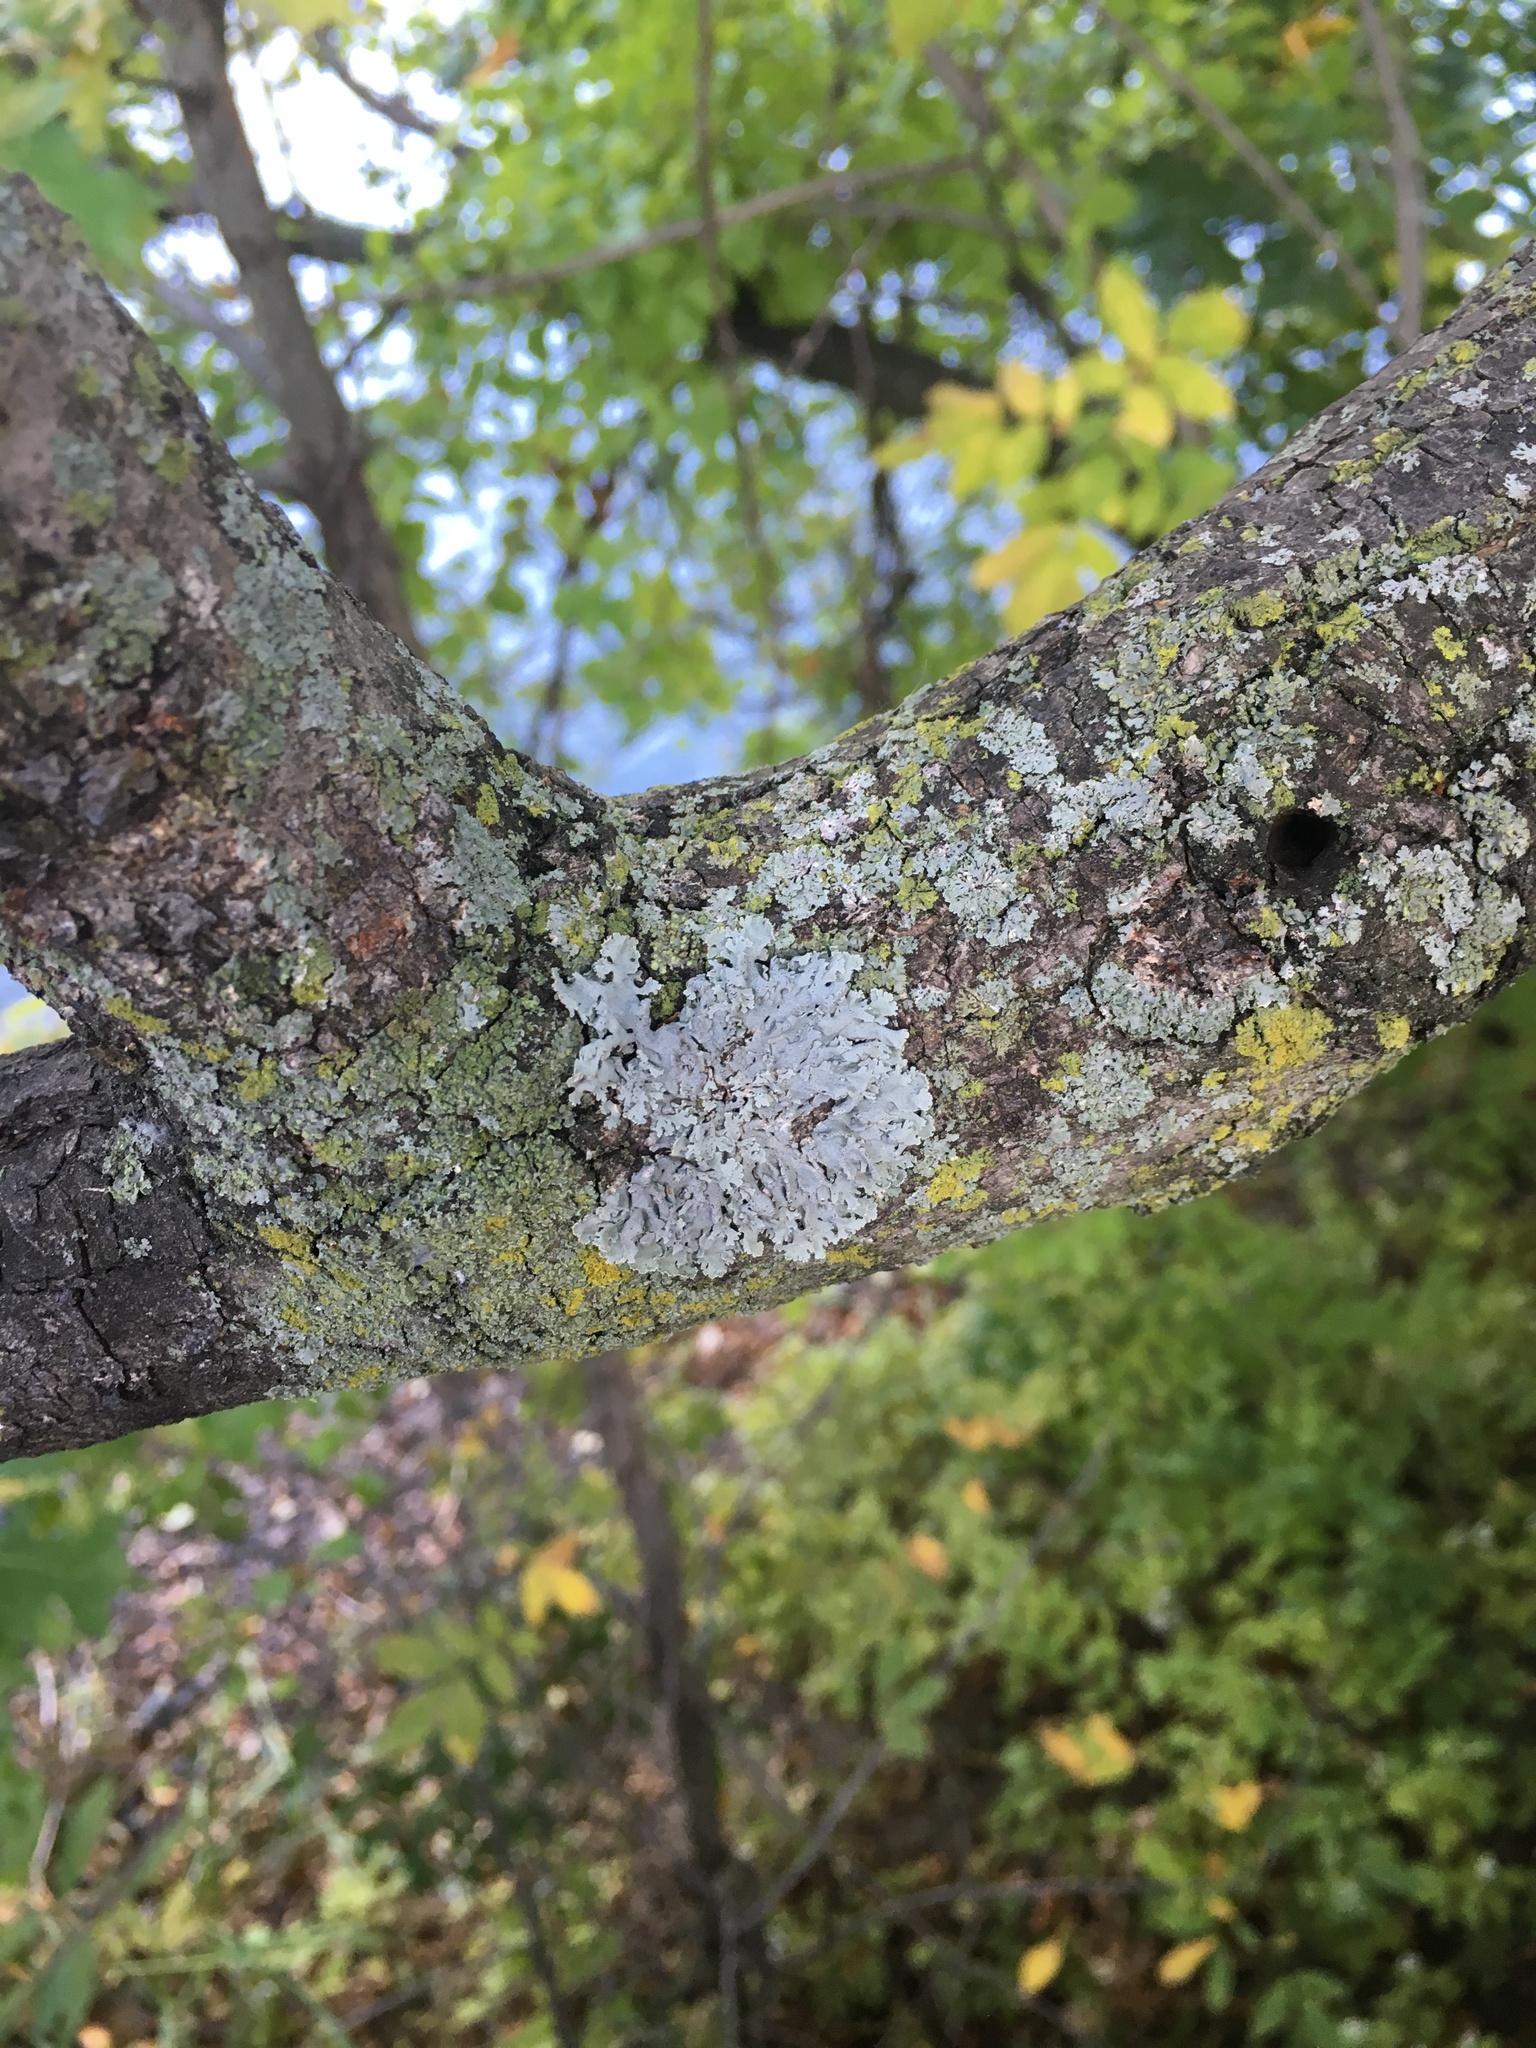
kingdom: Plantae
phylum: Tracheophyta
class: Magnoliopsida
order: Lamiales
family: Oleaceae
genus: Fraxinus
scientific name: Fraxinus americana
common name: White ash
